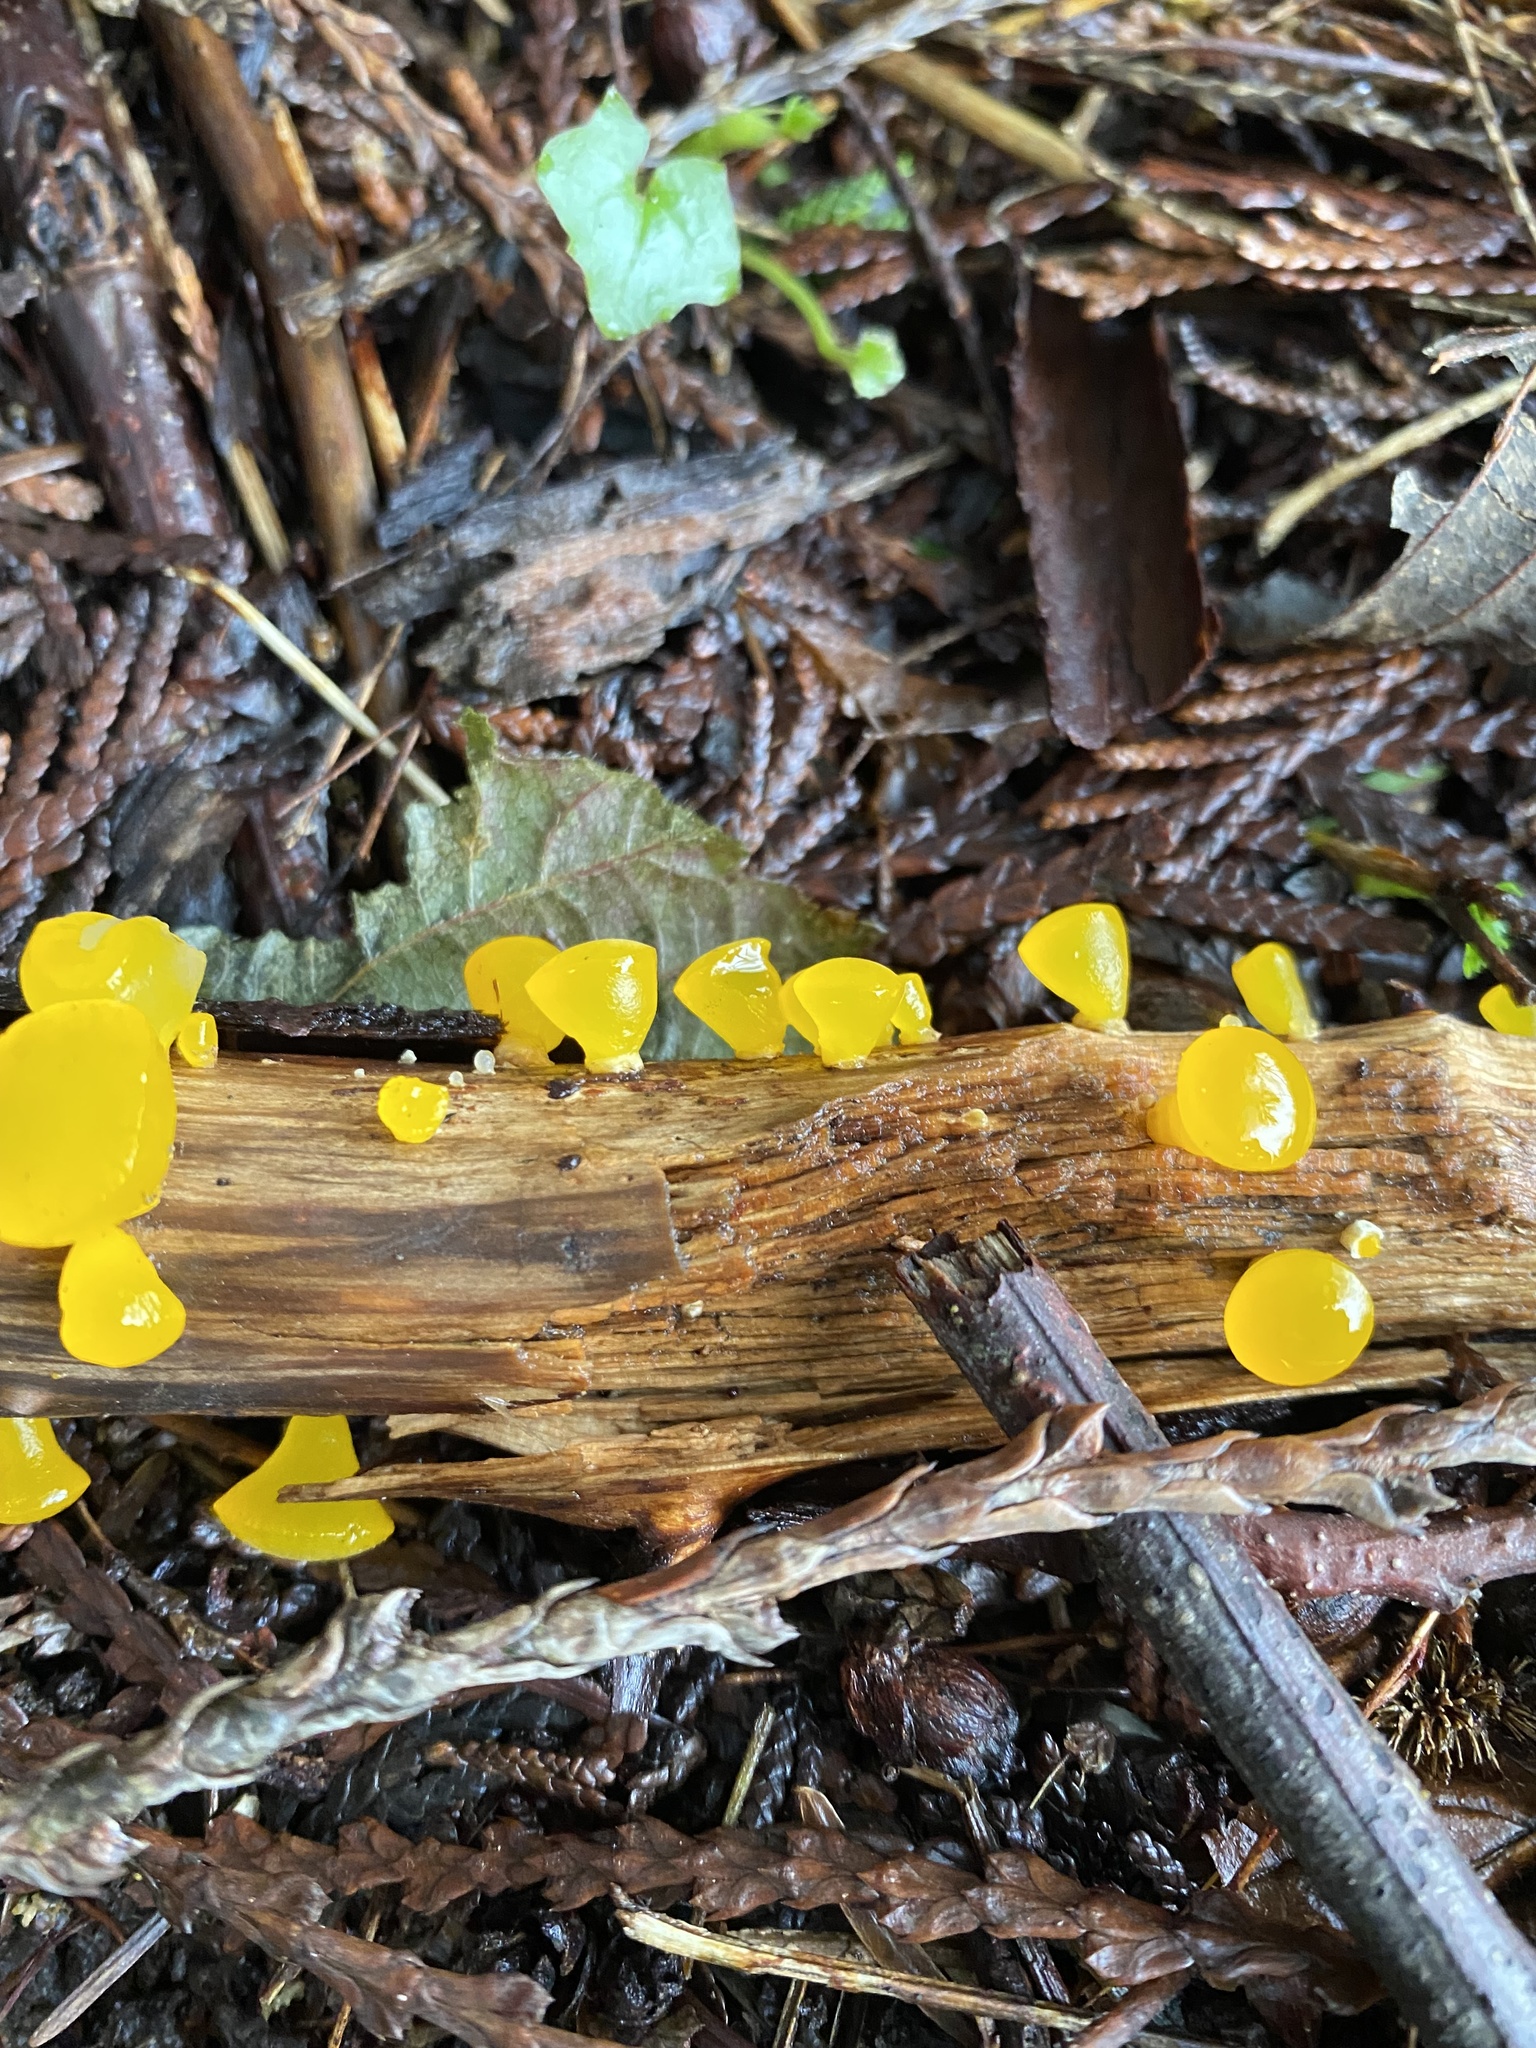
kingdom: Fungi
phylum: Basidiomycota
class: Dacrymycetes
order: Dacrymycetales
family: Dacrymycetaceae
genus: Guepiniopsis
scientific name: Guepiniopsis alpina
